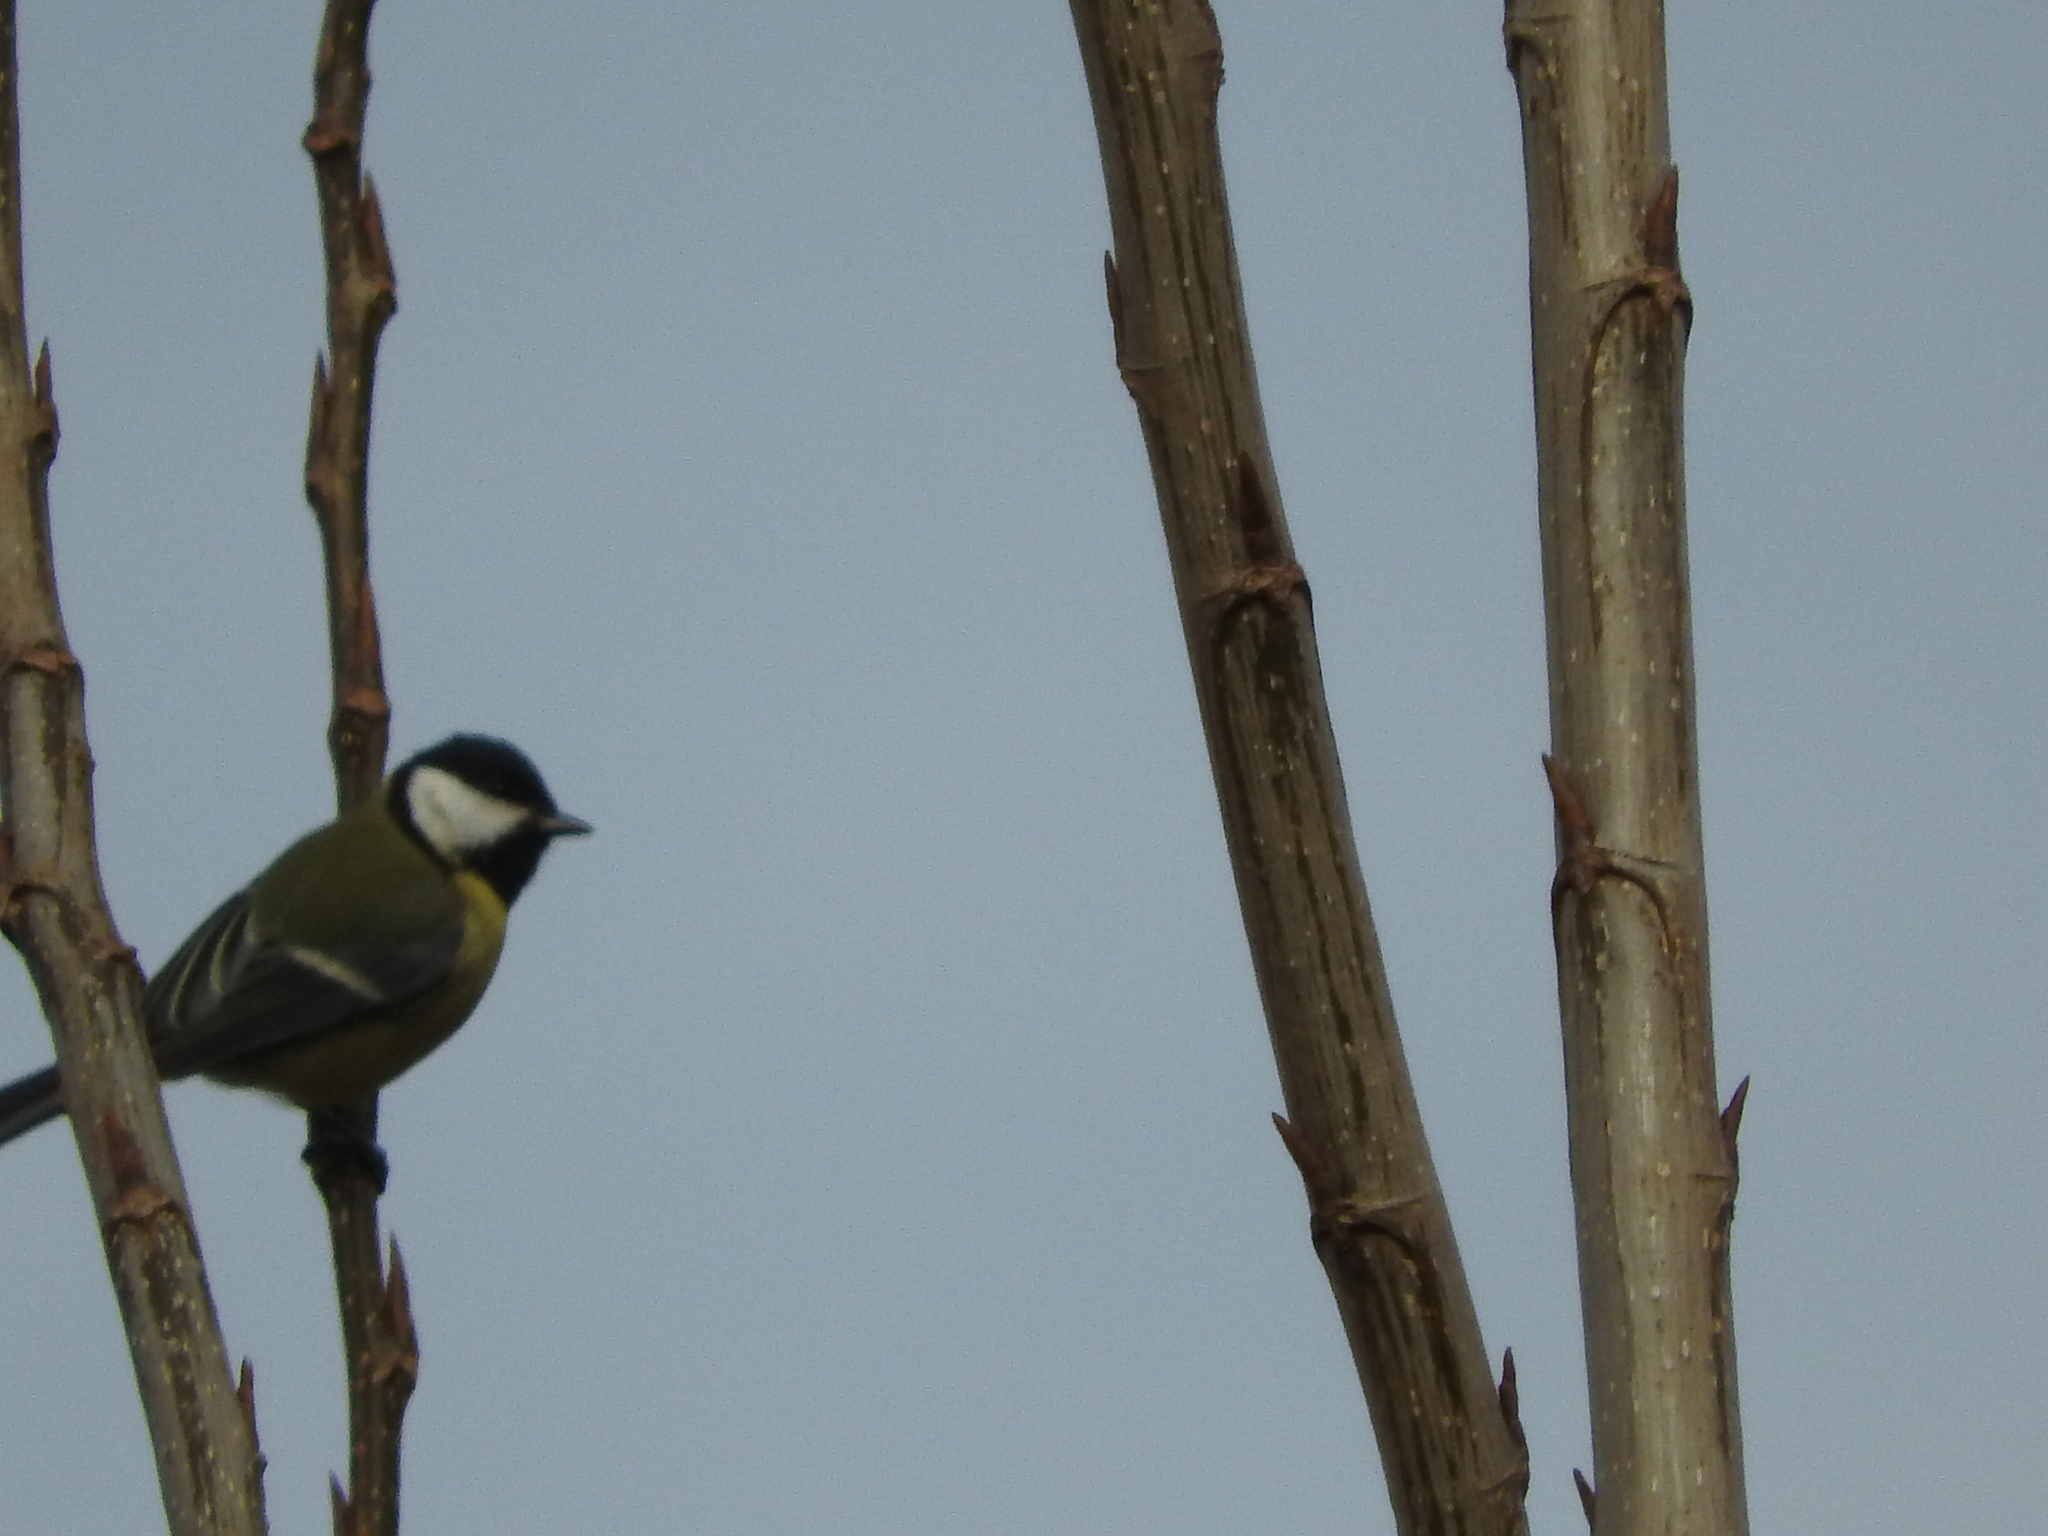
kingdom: Animalia
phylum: Chordata
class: Aves
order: Passeriformes
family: Paridae
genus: Parus
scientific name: Parus major
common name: Great tit
